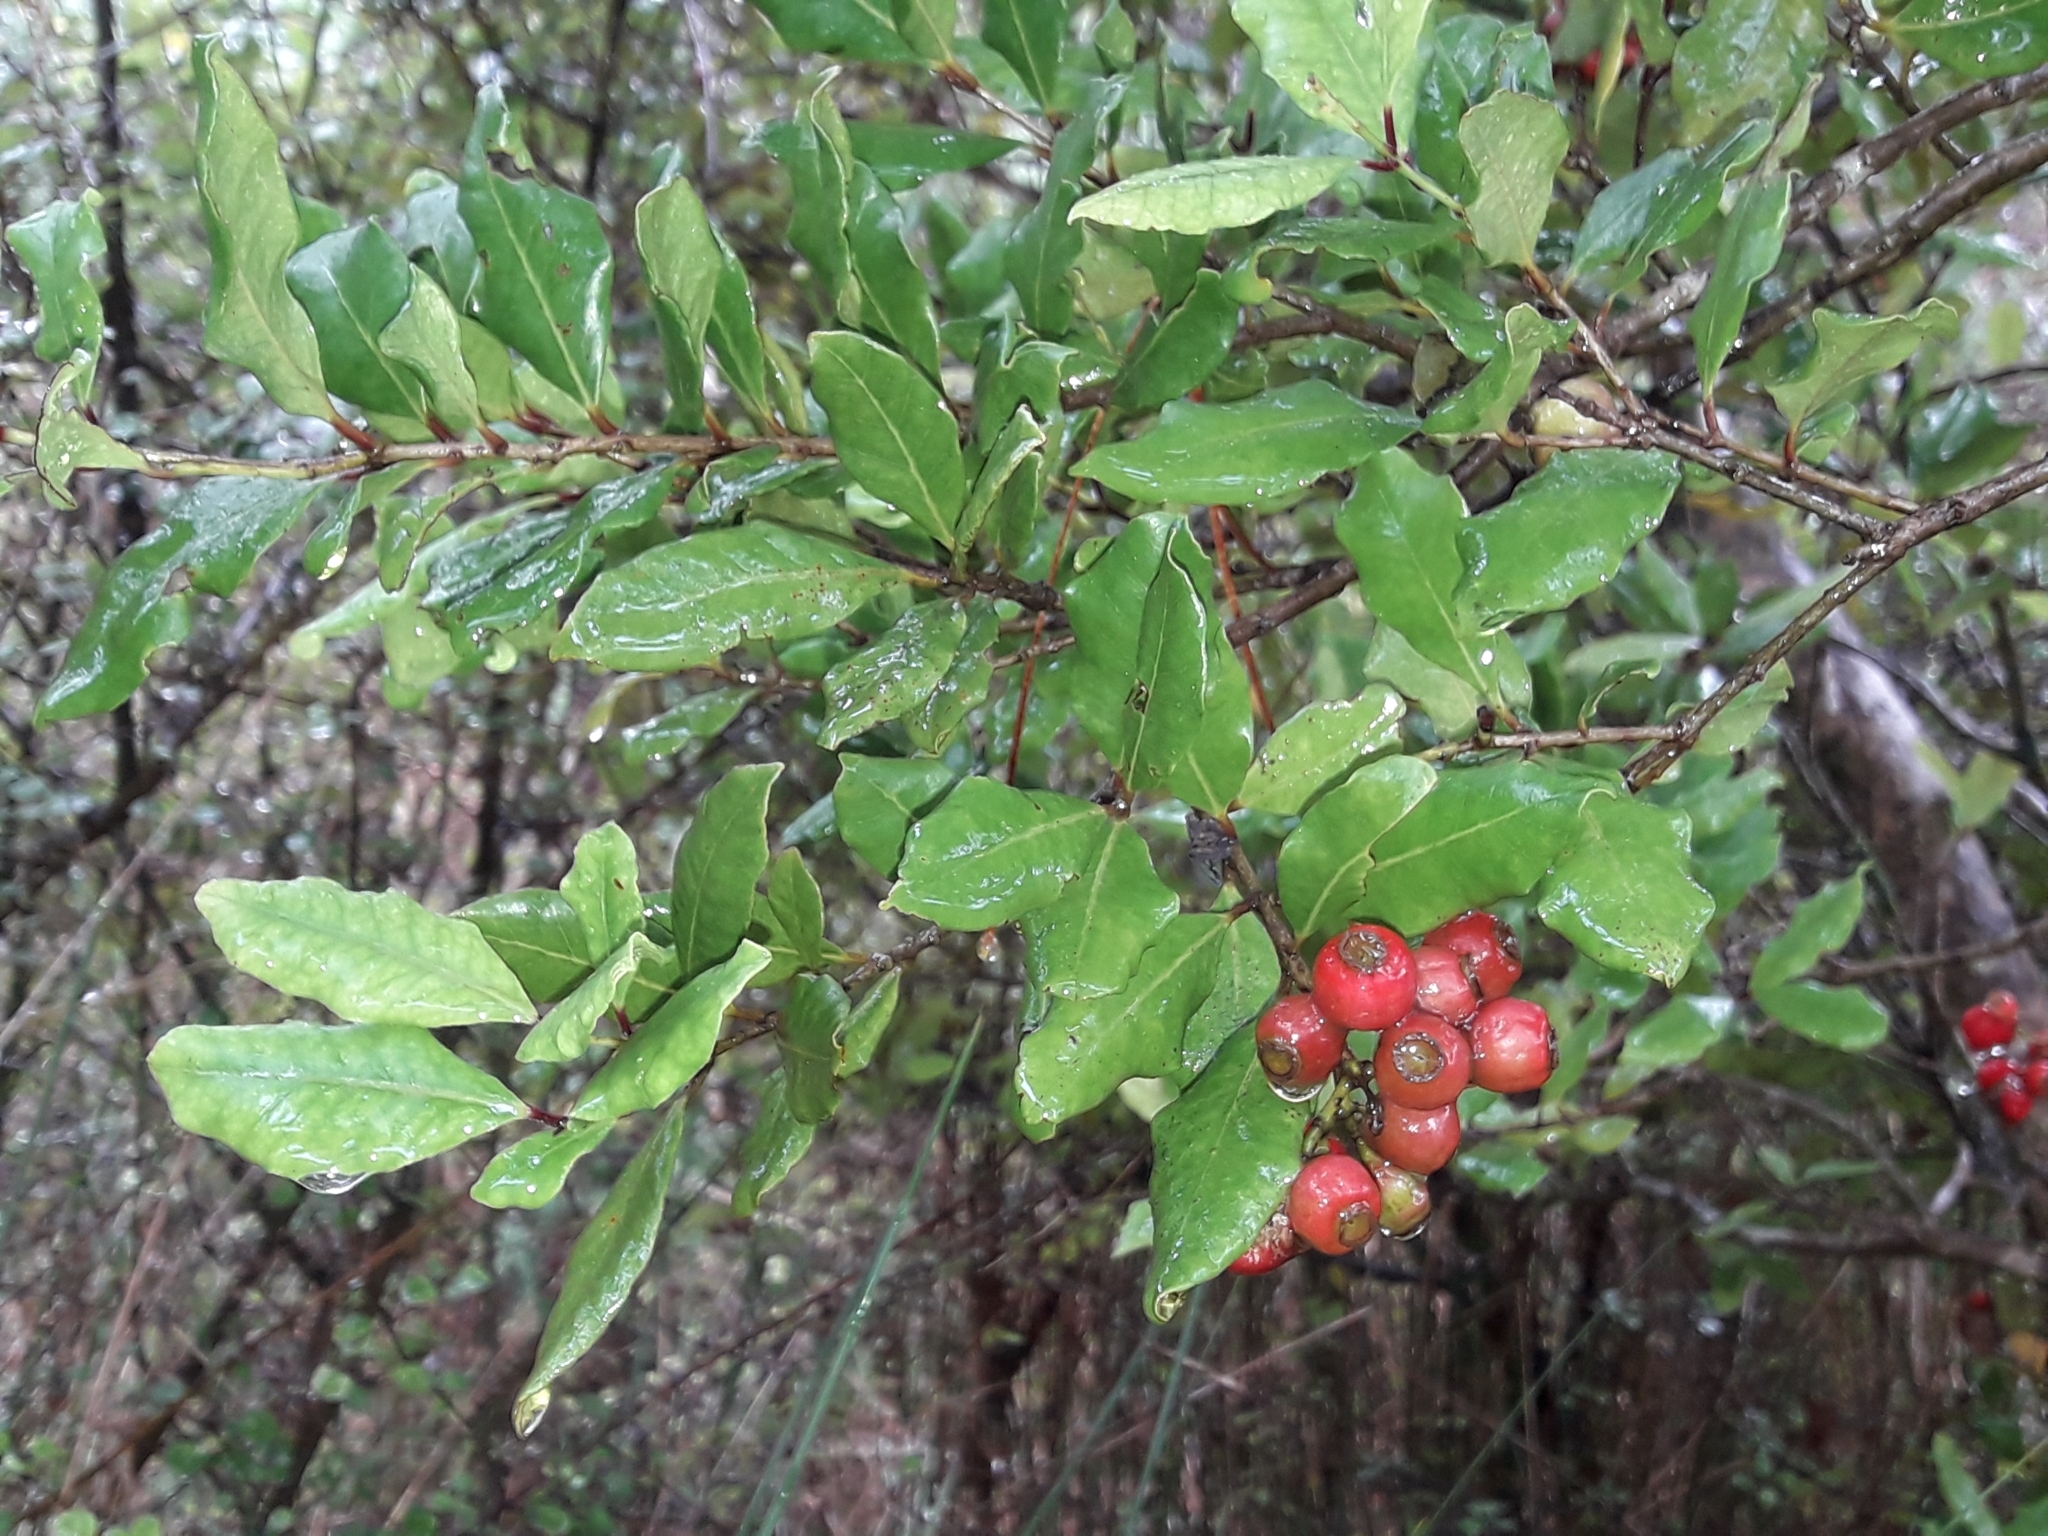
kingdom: Plantae
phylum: Tracheophyta
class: Magnoliopsida
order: Myrtales
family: Myrtaceae
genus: Syzygium
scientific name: Syzygium maire
